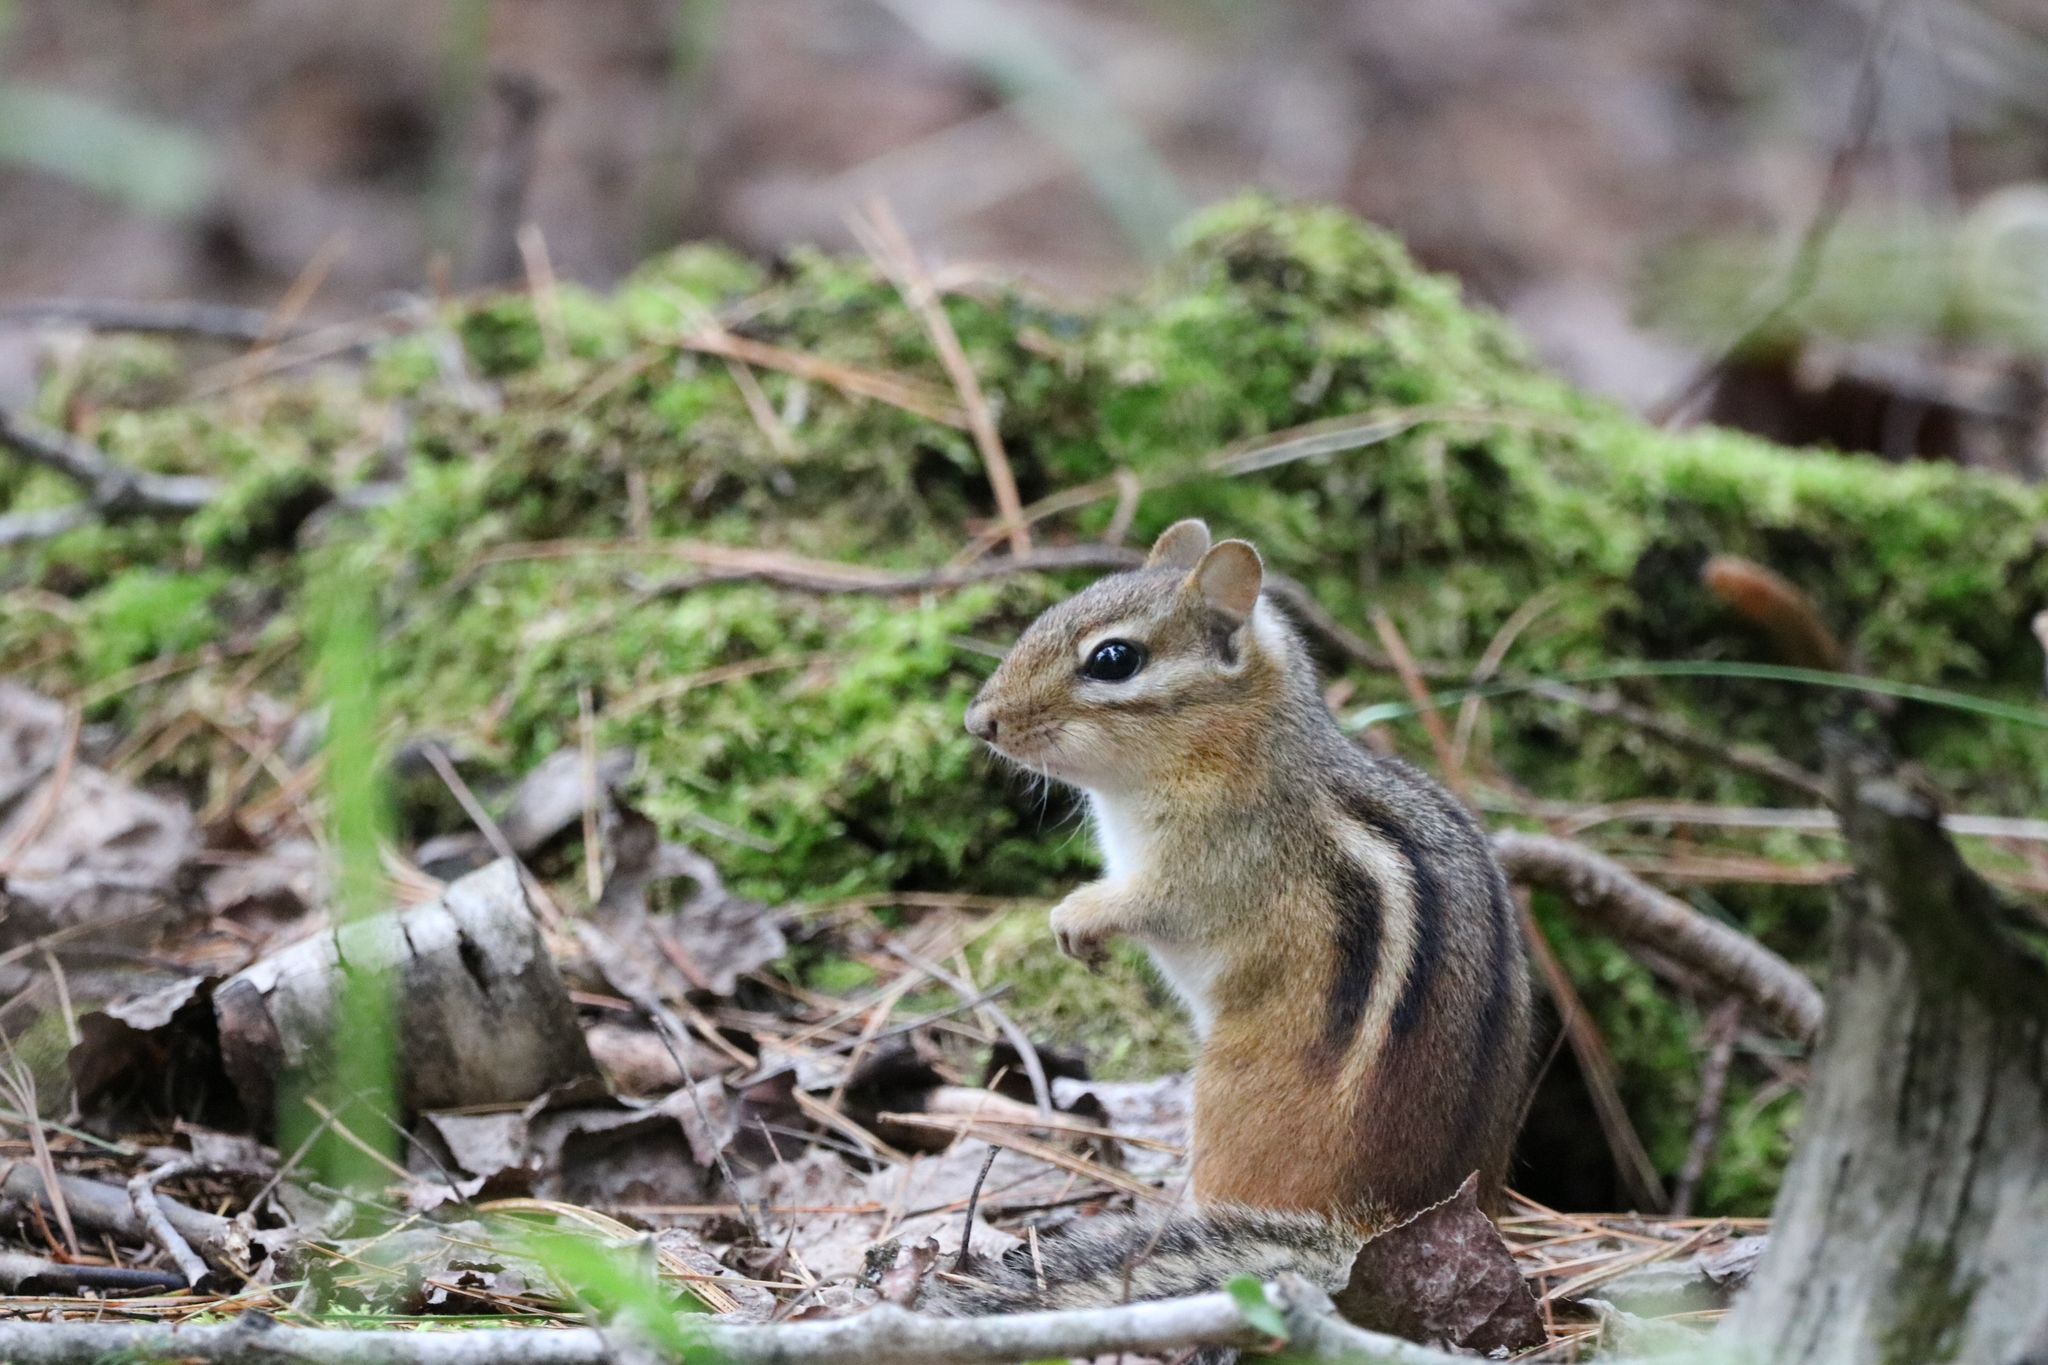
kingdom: Animalia
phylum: Chordata
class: Mammalia
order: Rodentia
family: Sciuridae
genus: Tamias
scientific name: Tamias striatus
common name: Eastern chipmunk
